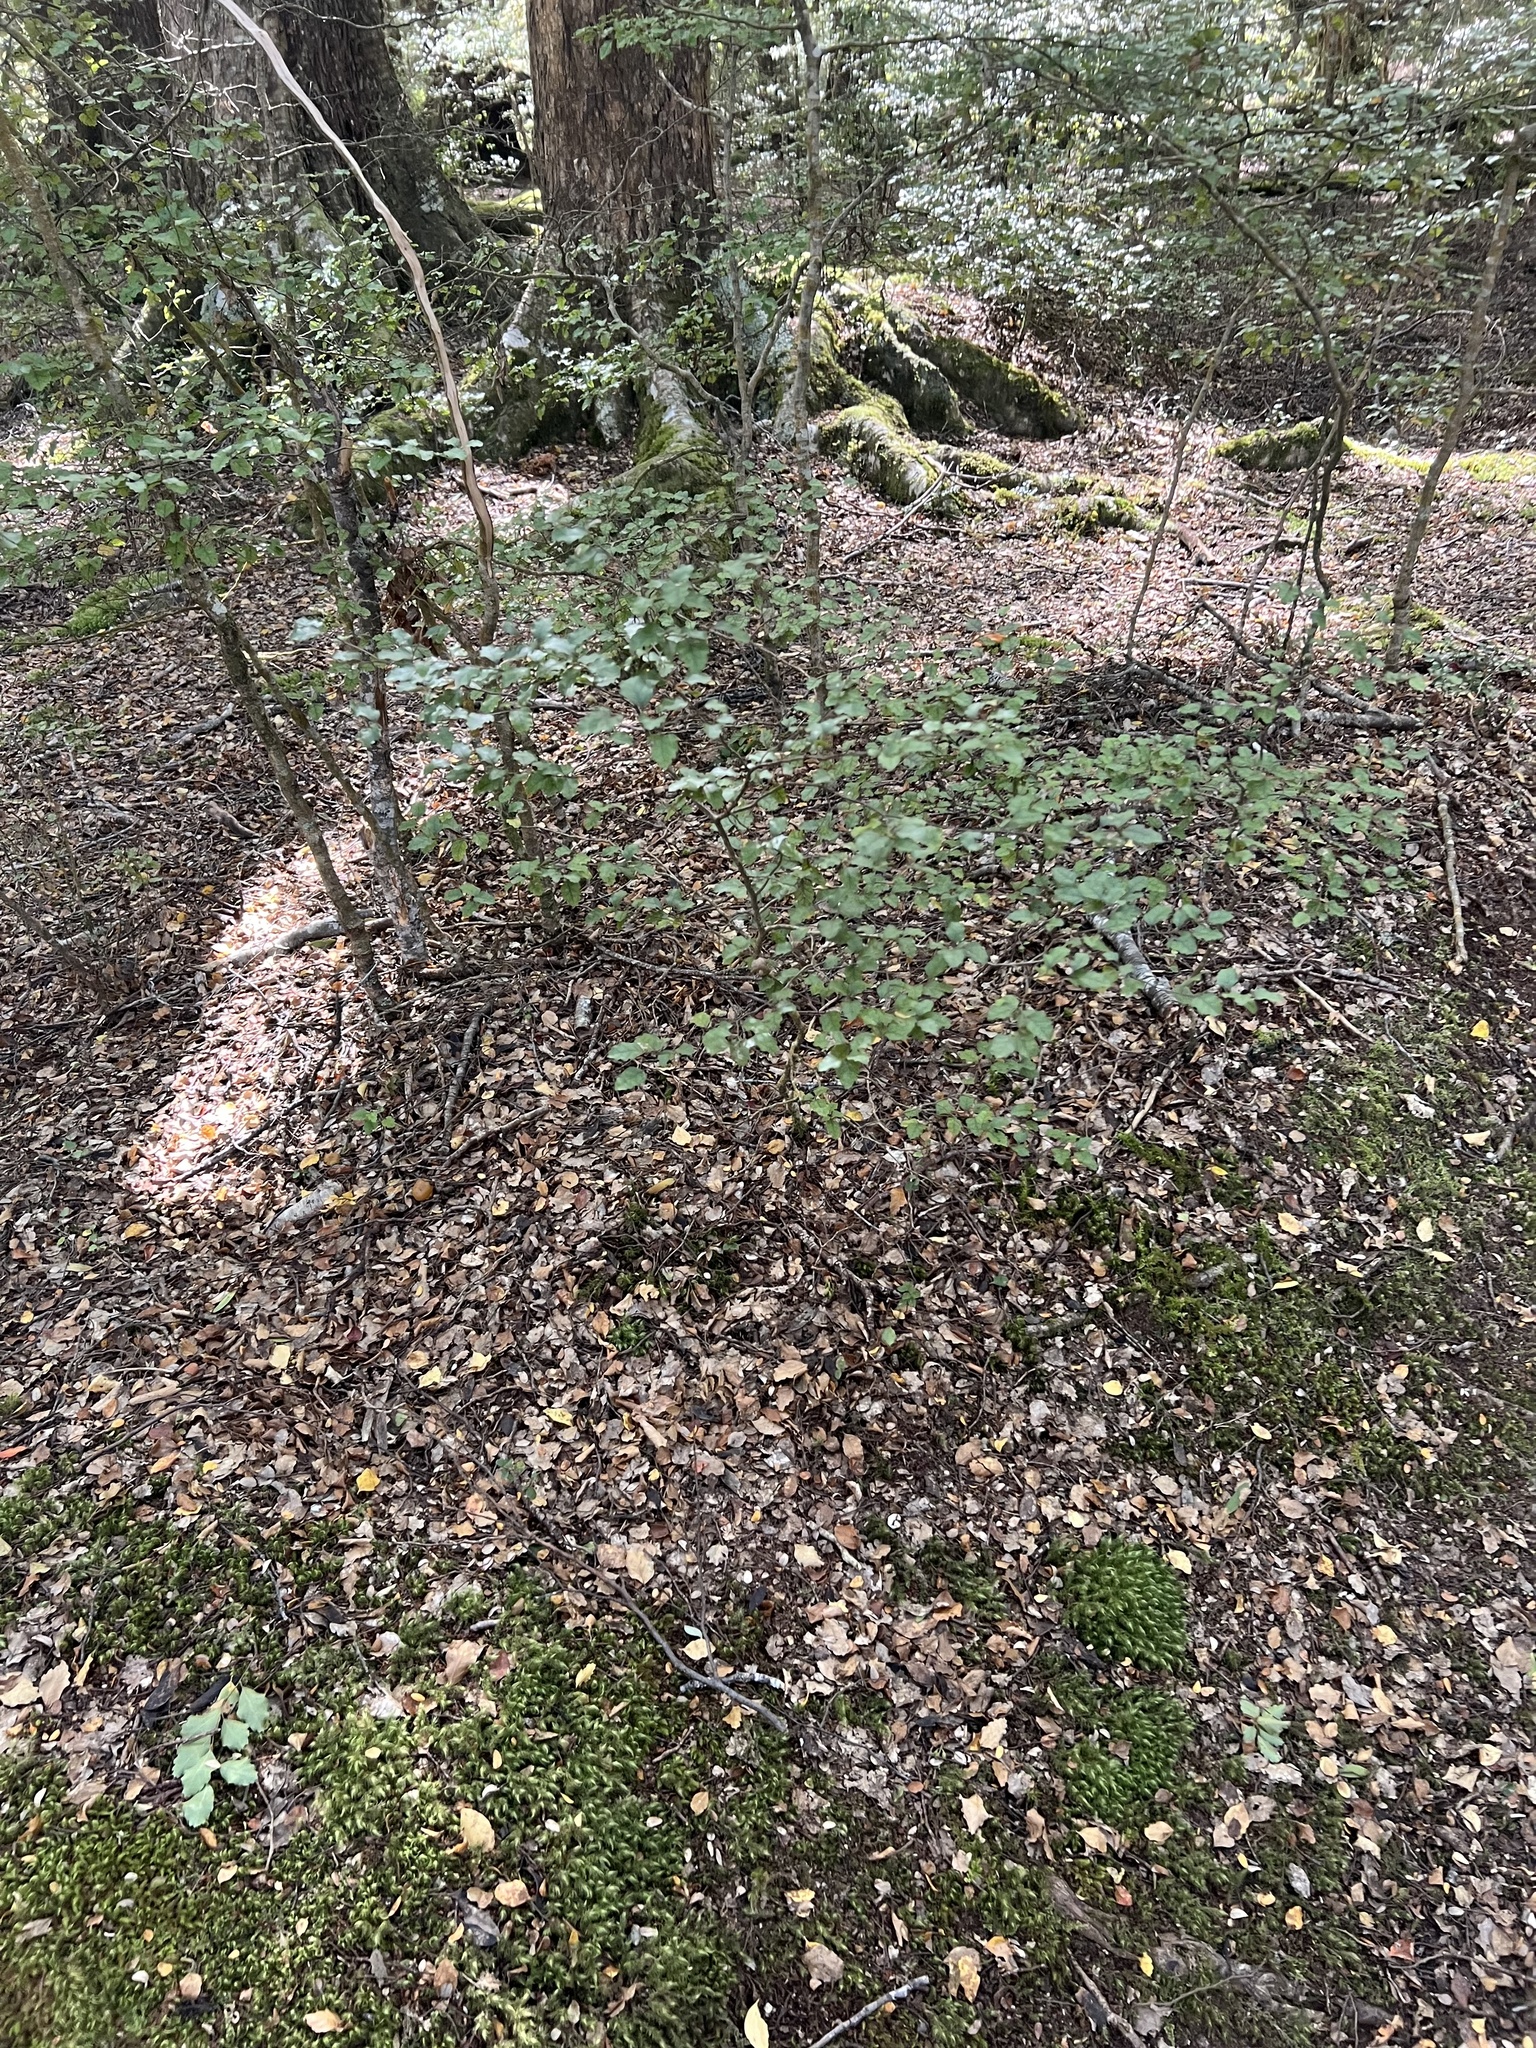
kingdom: Plantae
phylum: Tracheophyta
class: Magnoliopsida
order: Fagales
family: Nothofagaceae
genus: Nothofagus
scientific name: Nothofagus fusca
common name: Red beech
